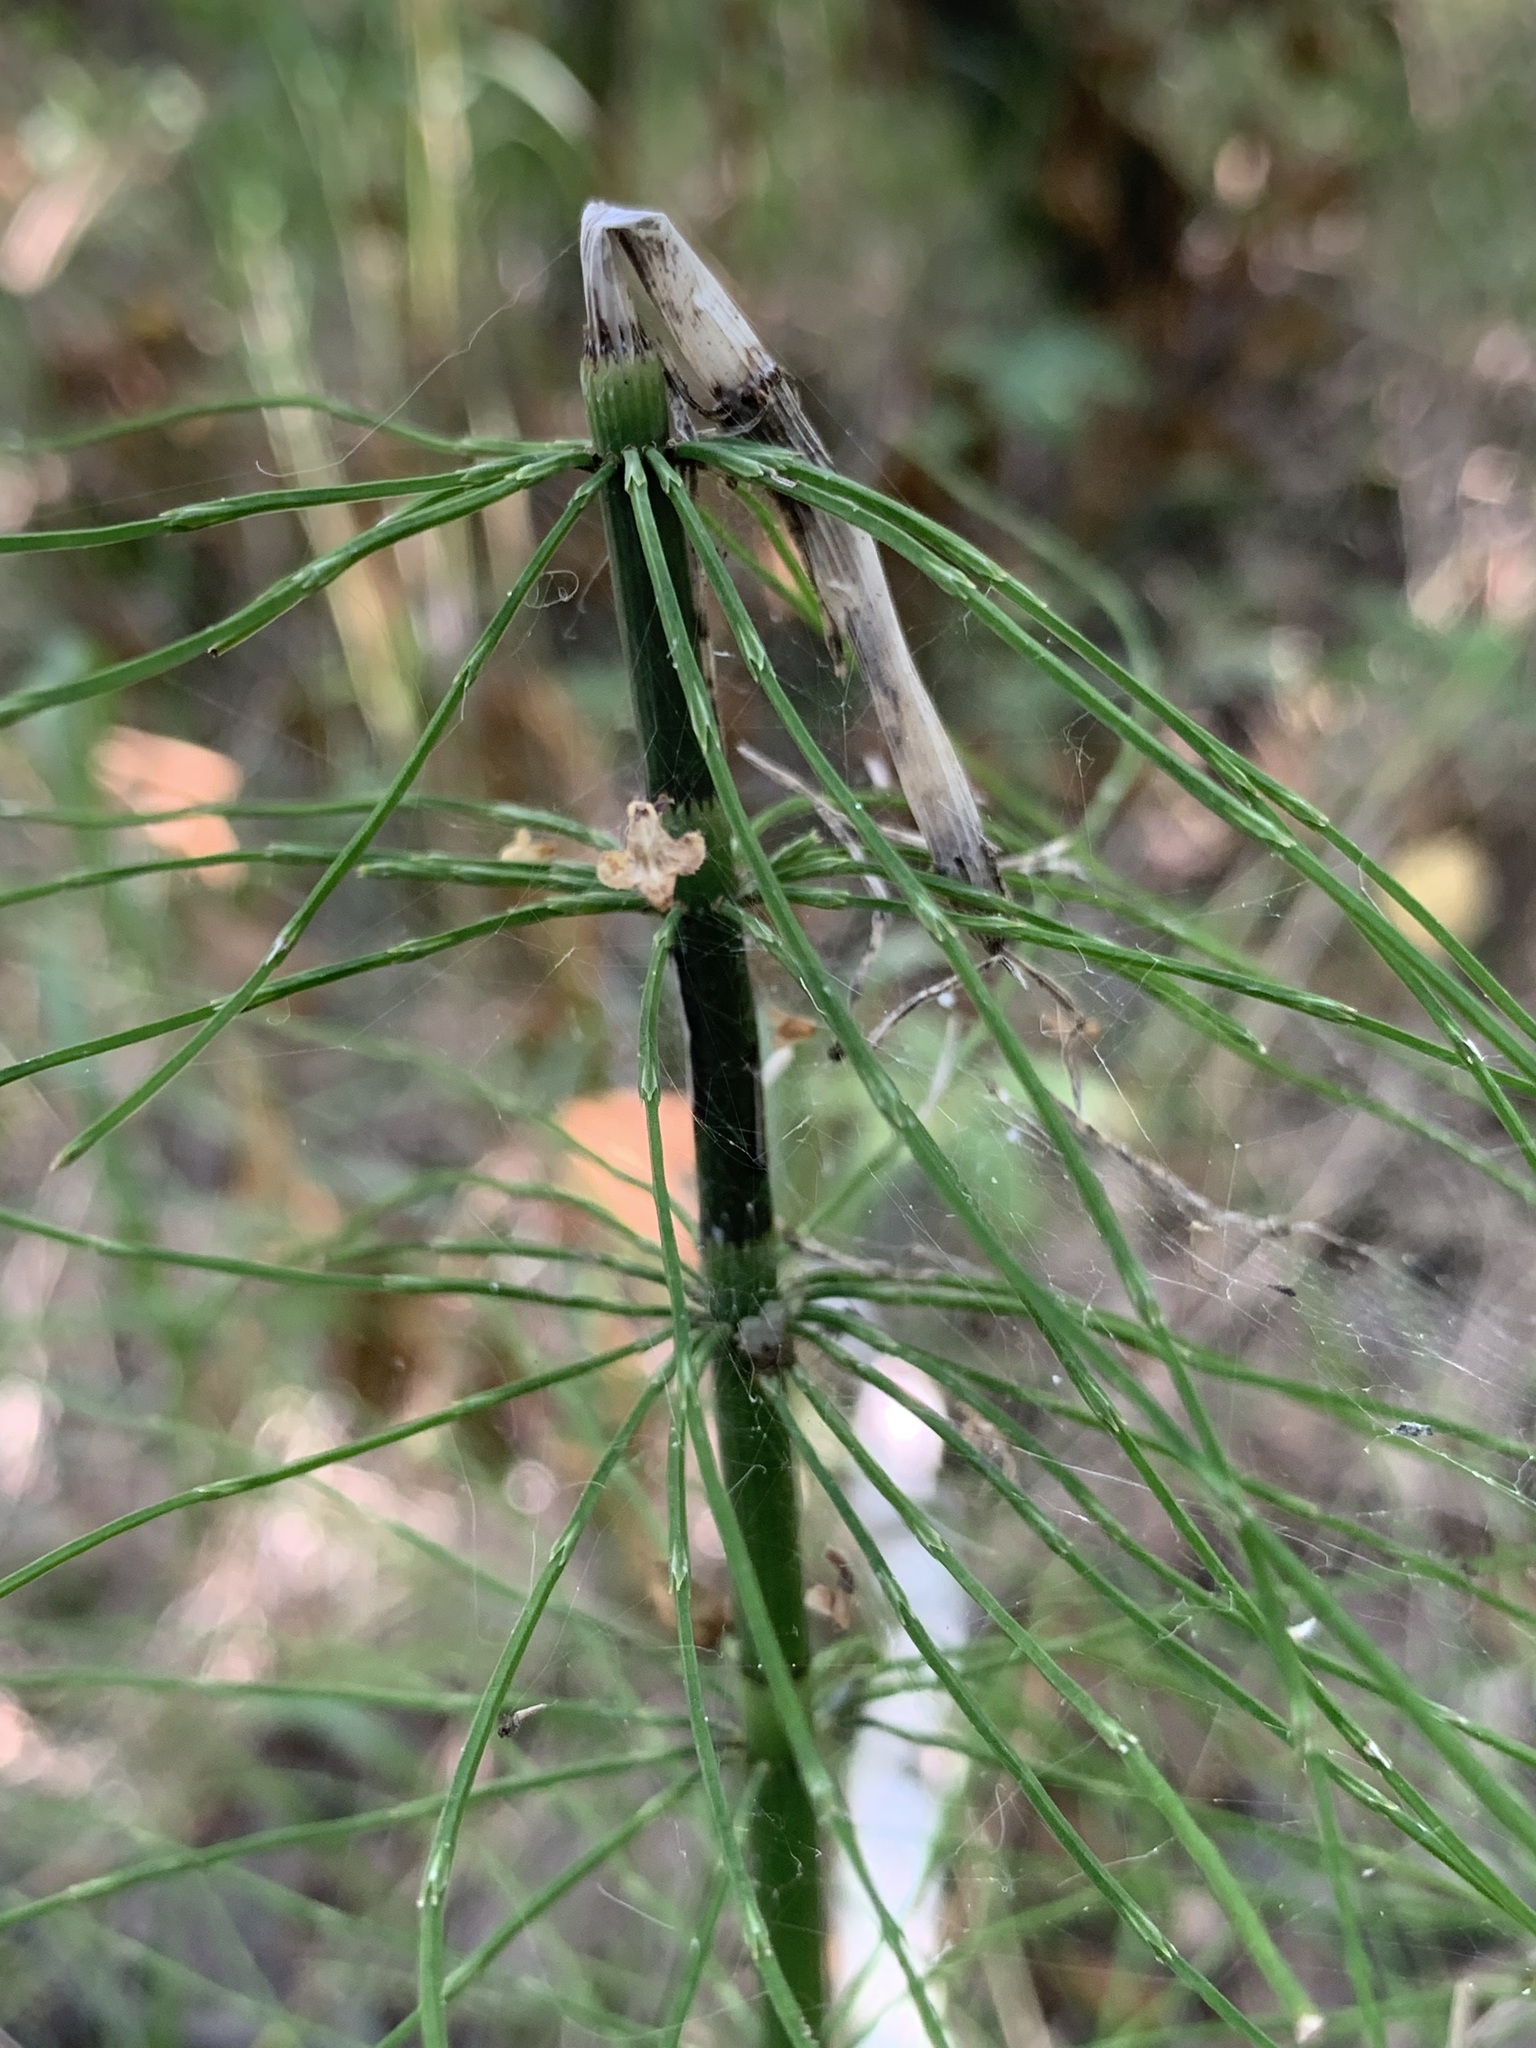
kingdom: Plantae
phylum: Tracheophyta
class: Polypodiopsida
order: Equisetales
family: Equisetaceae
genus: Equisetum
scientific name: Equisetum fluviatile
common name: Water horsetail
